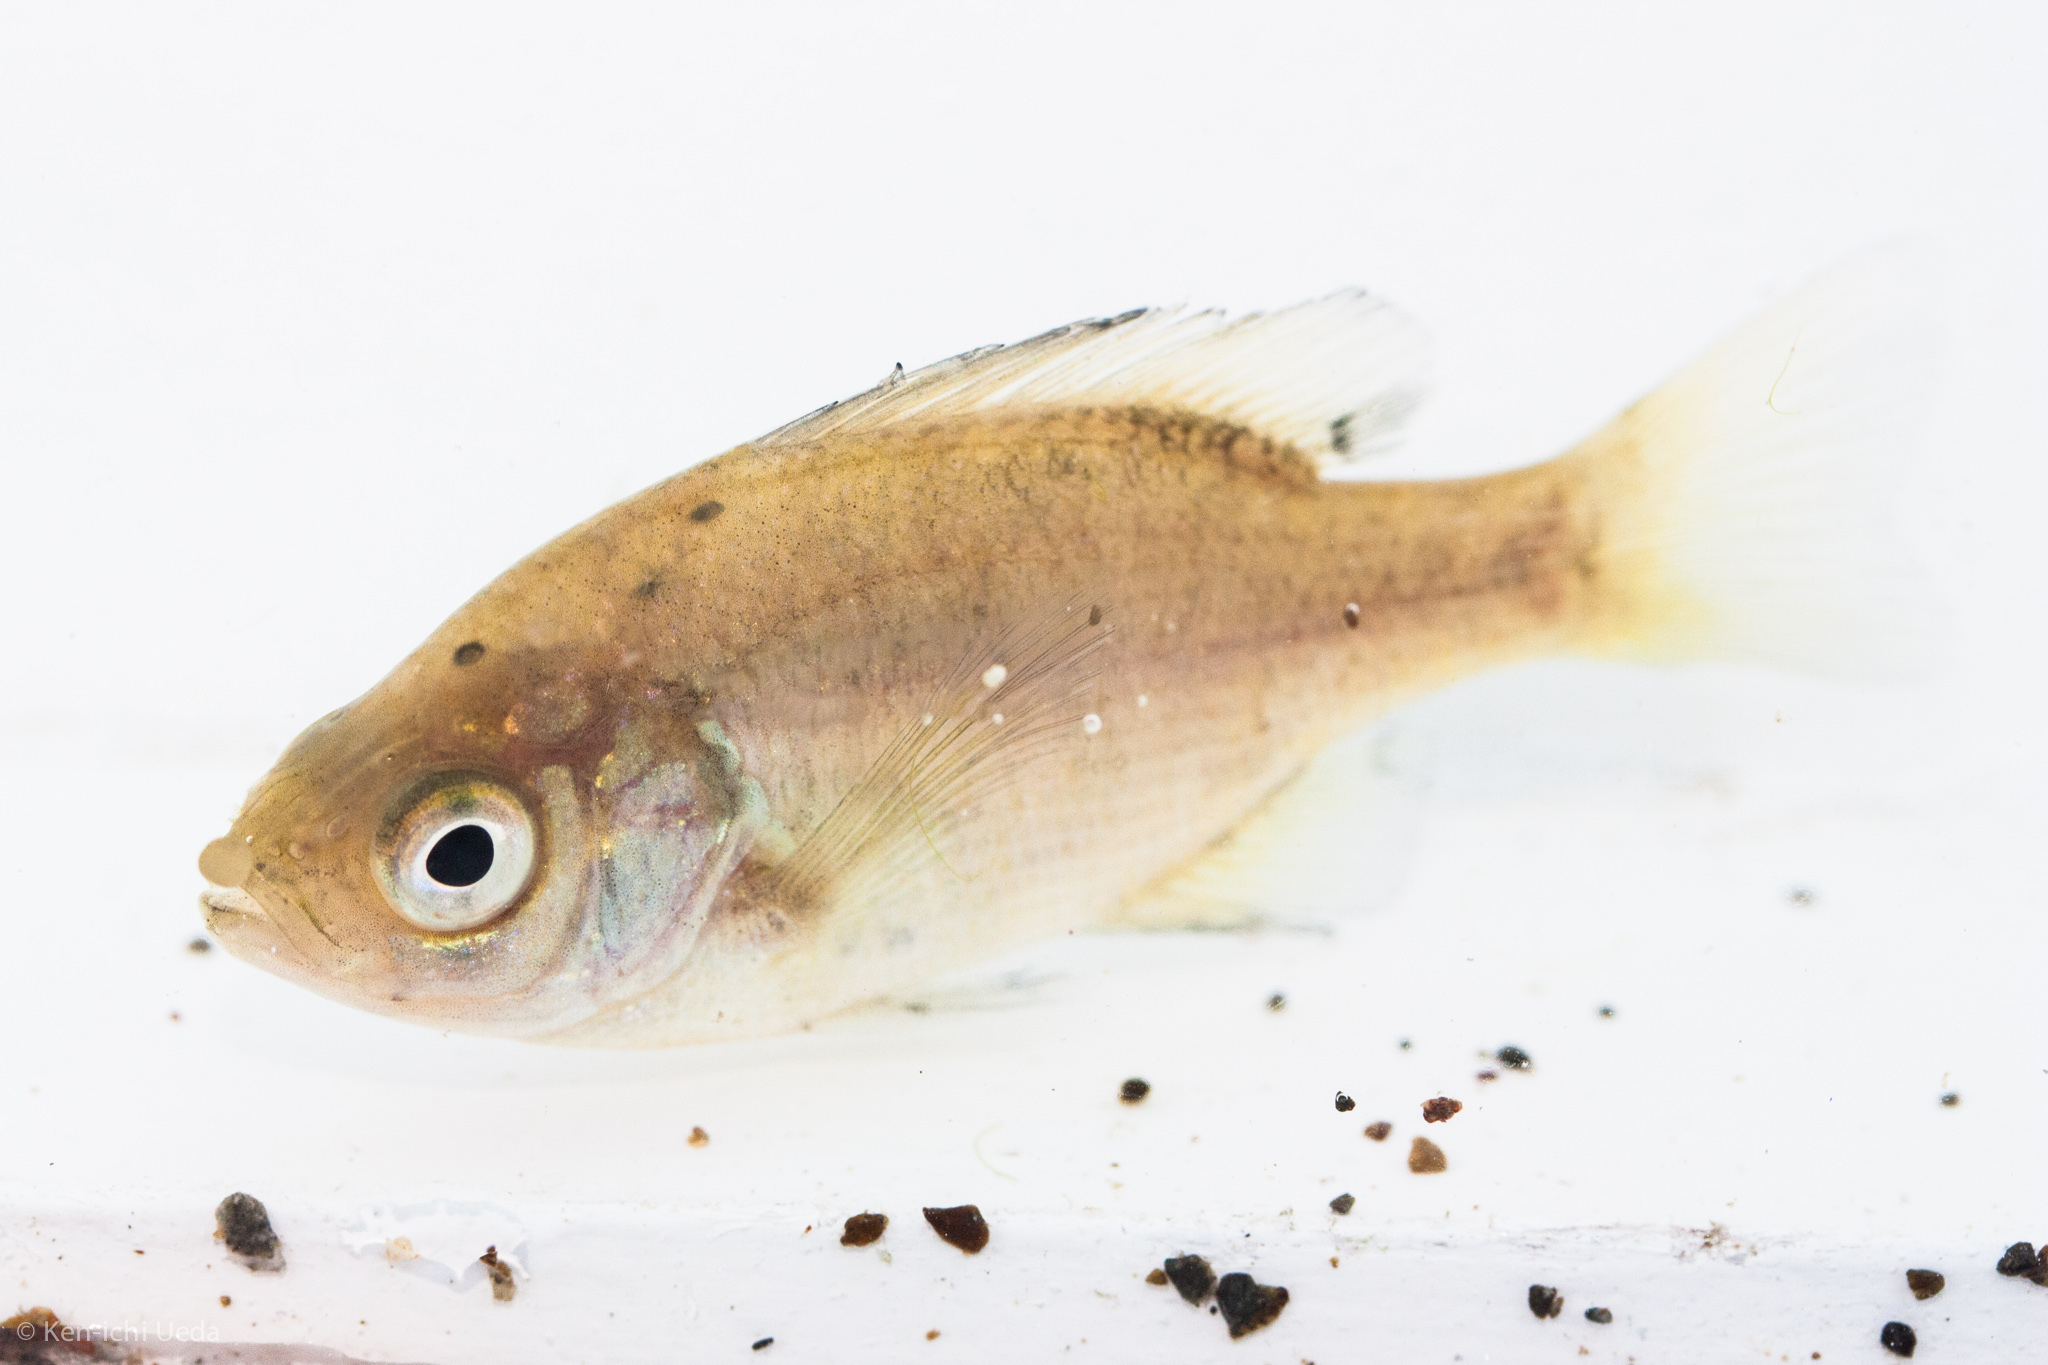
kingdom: Animalia
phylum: Chordata
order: Perciformes
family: Centrarchidae
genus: Lepomis
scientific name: Lepomis macrochirus
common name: Bluegill
